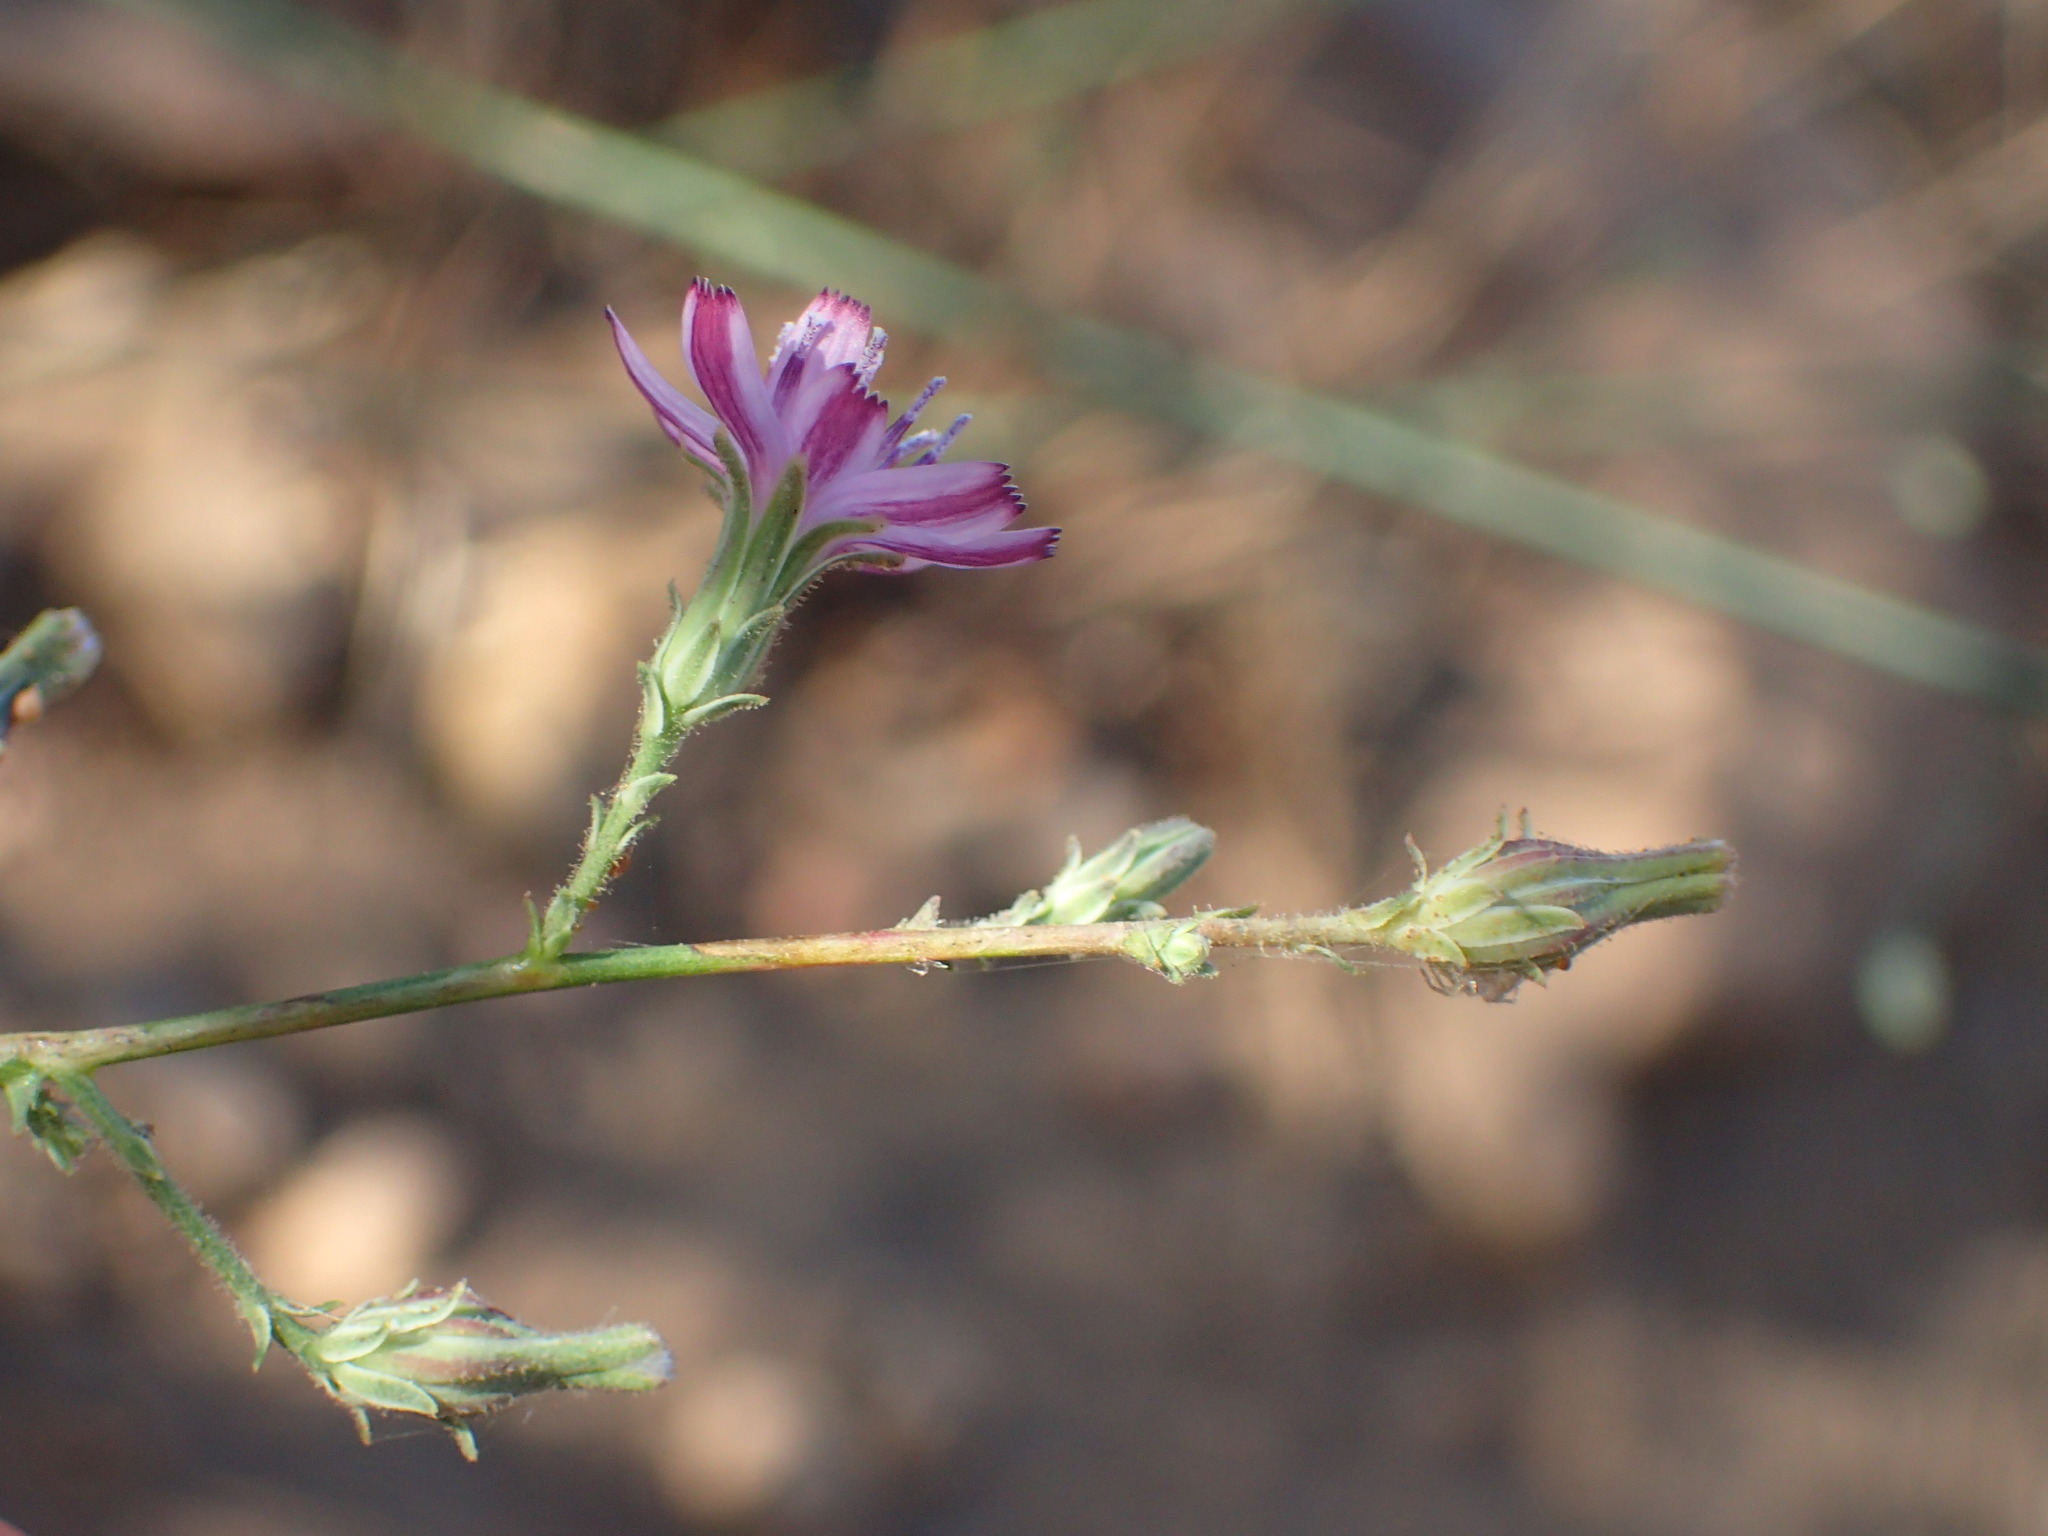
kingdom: Plantae
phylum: Tracheophyta
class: Magnoliopsida
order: Asterales
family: Asteraceae
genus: Stephanomeria
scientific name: Stephanomeria elata
